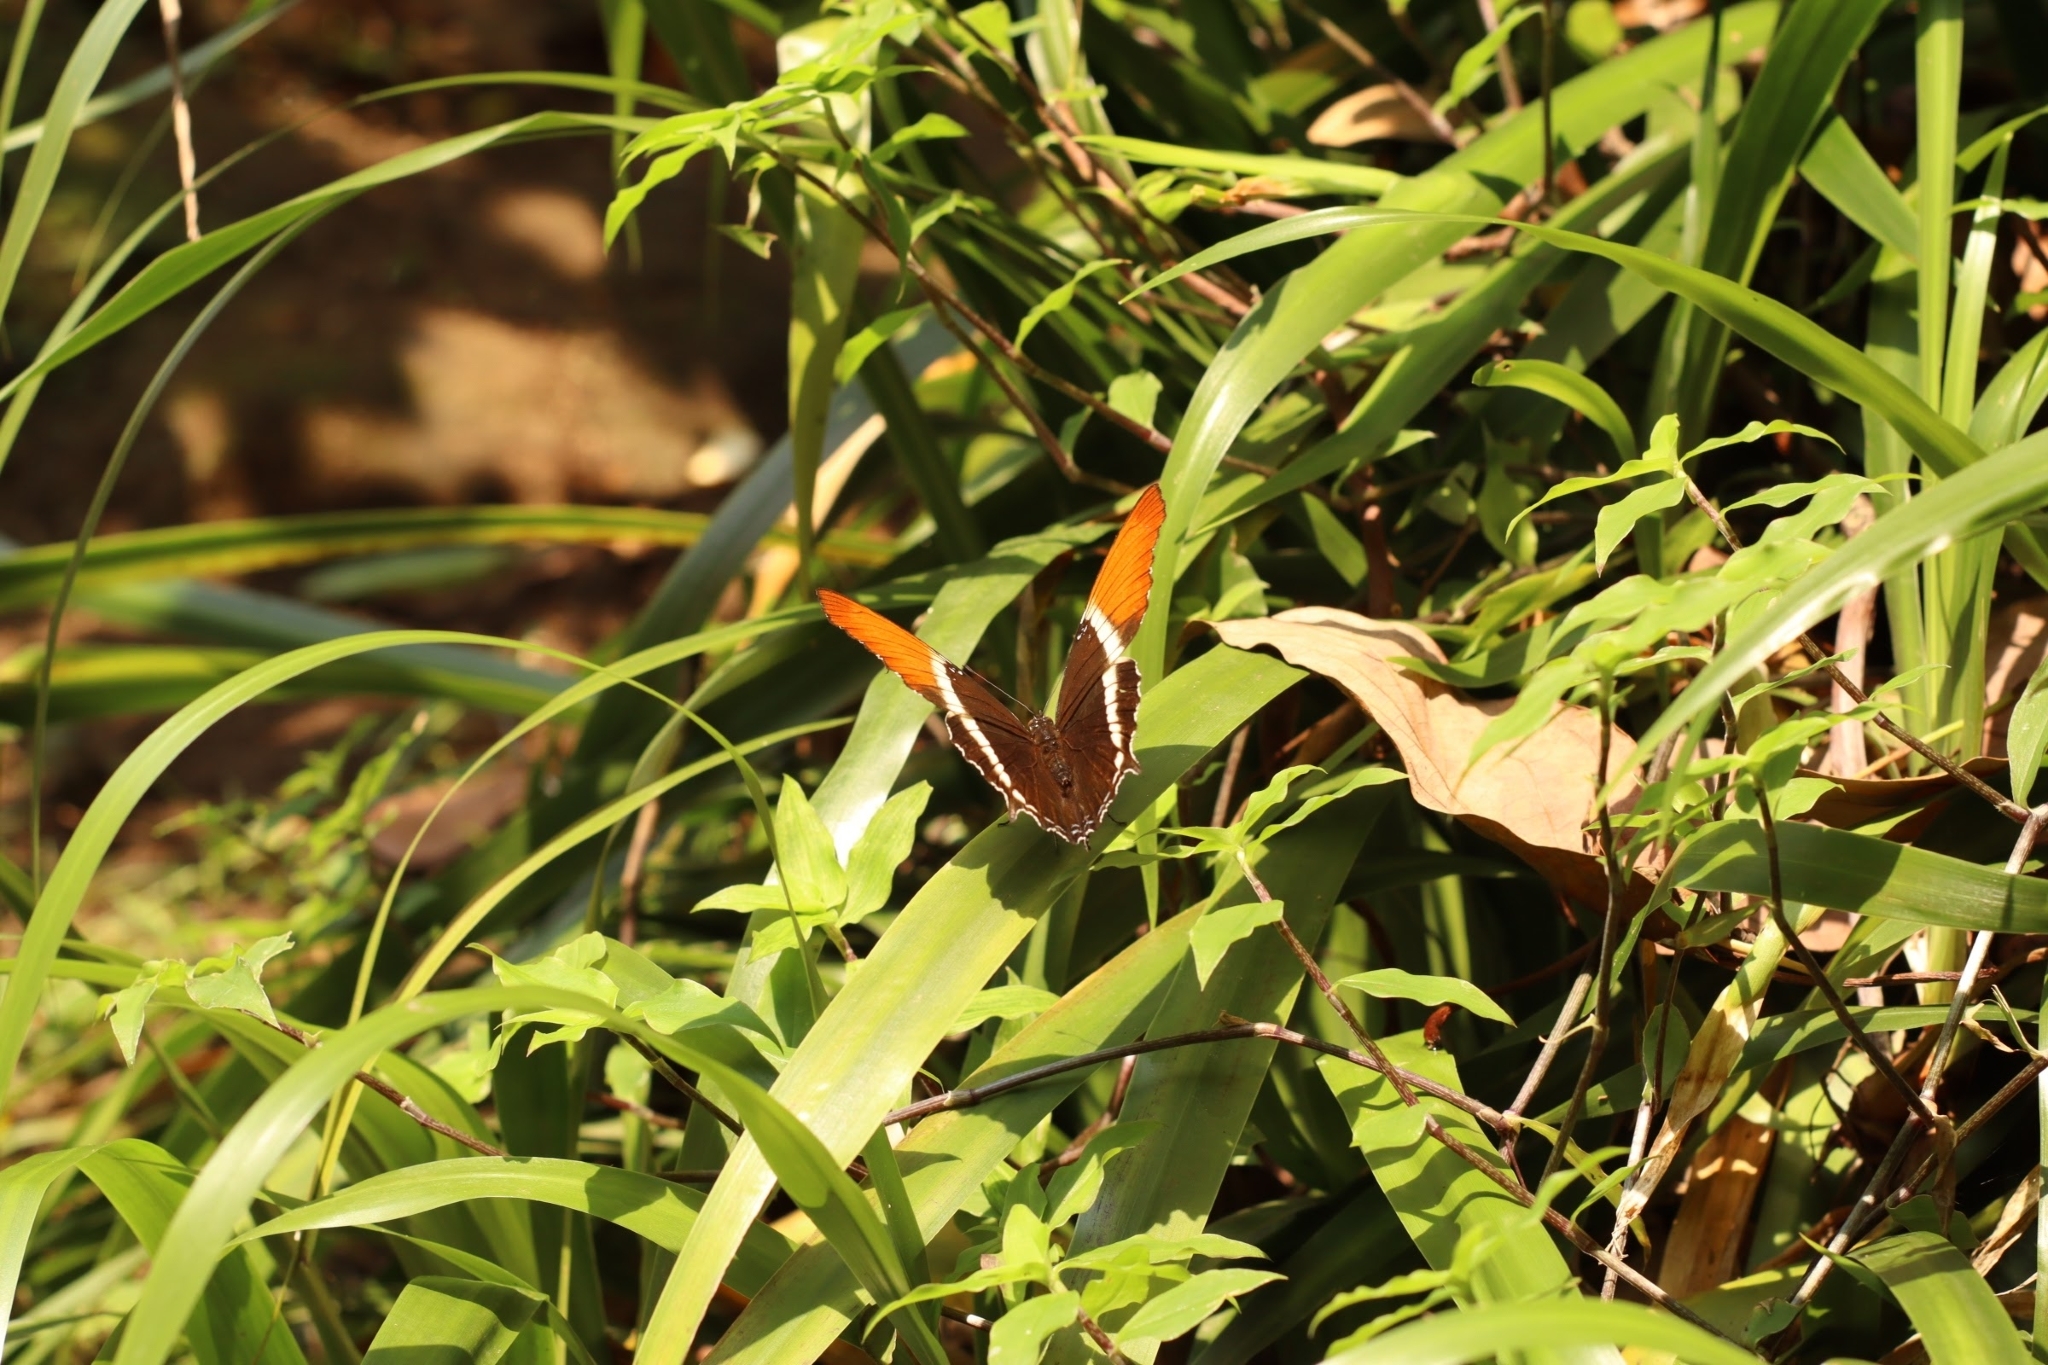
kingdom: Animalia
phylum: Arthropoda
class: Insecta
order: Lepidoptera
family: Nymphalidae
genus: Siproeta
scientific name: Siproeta epaphus
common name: Rusty-tipped page
